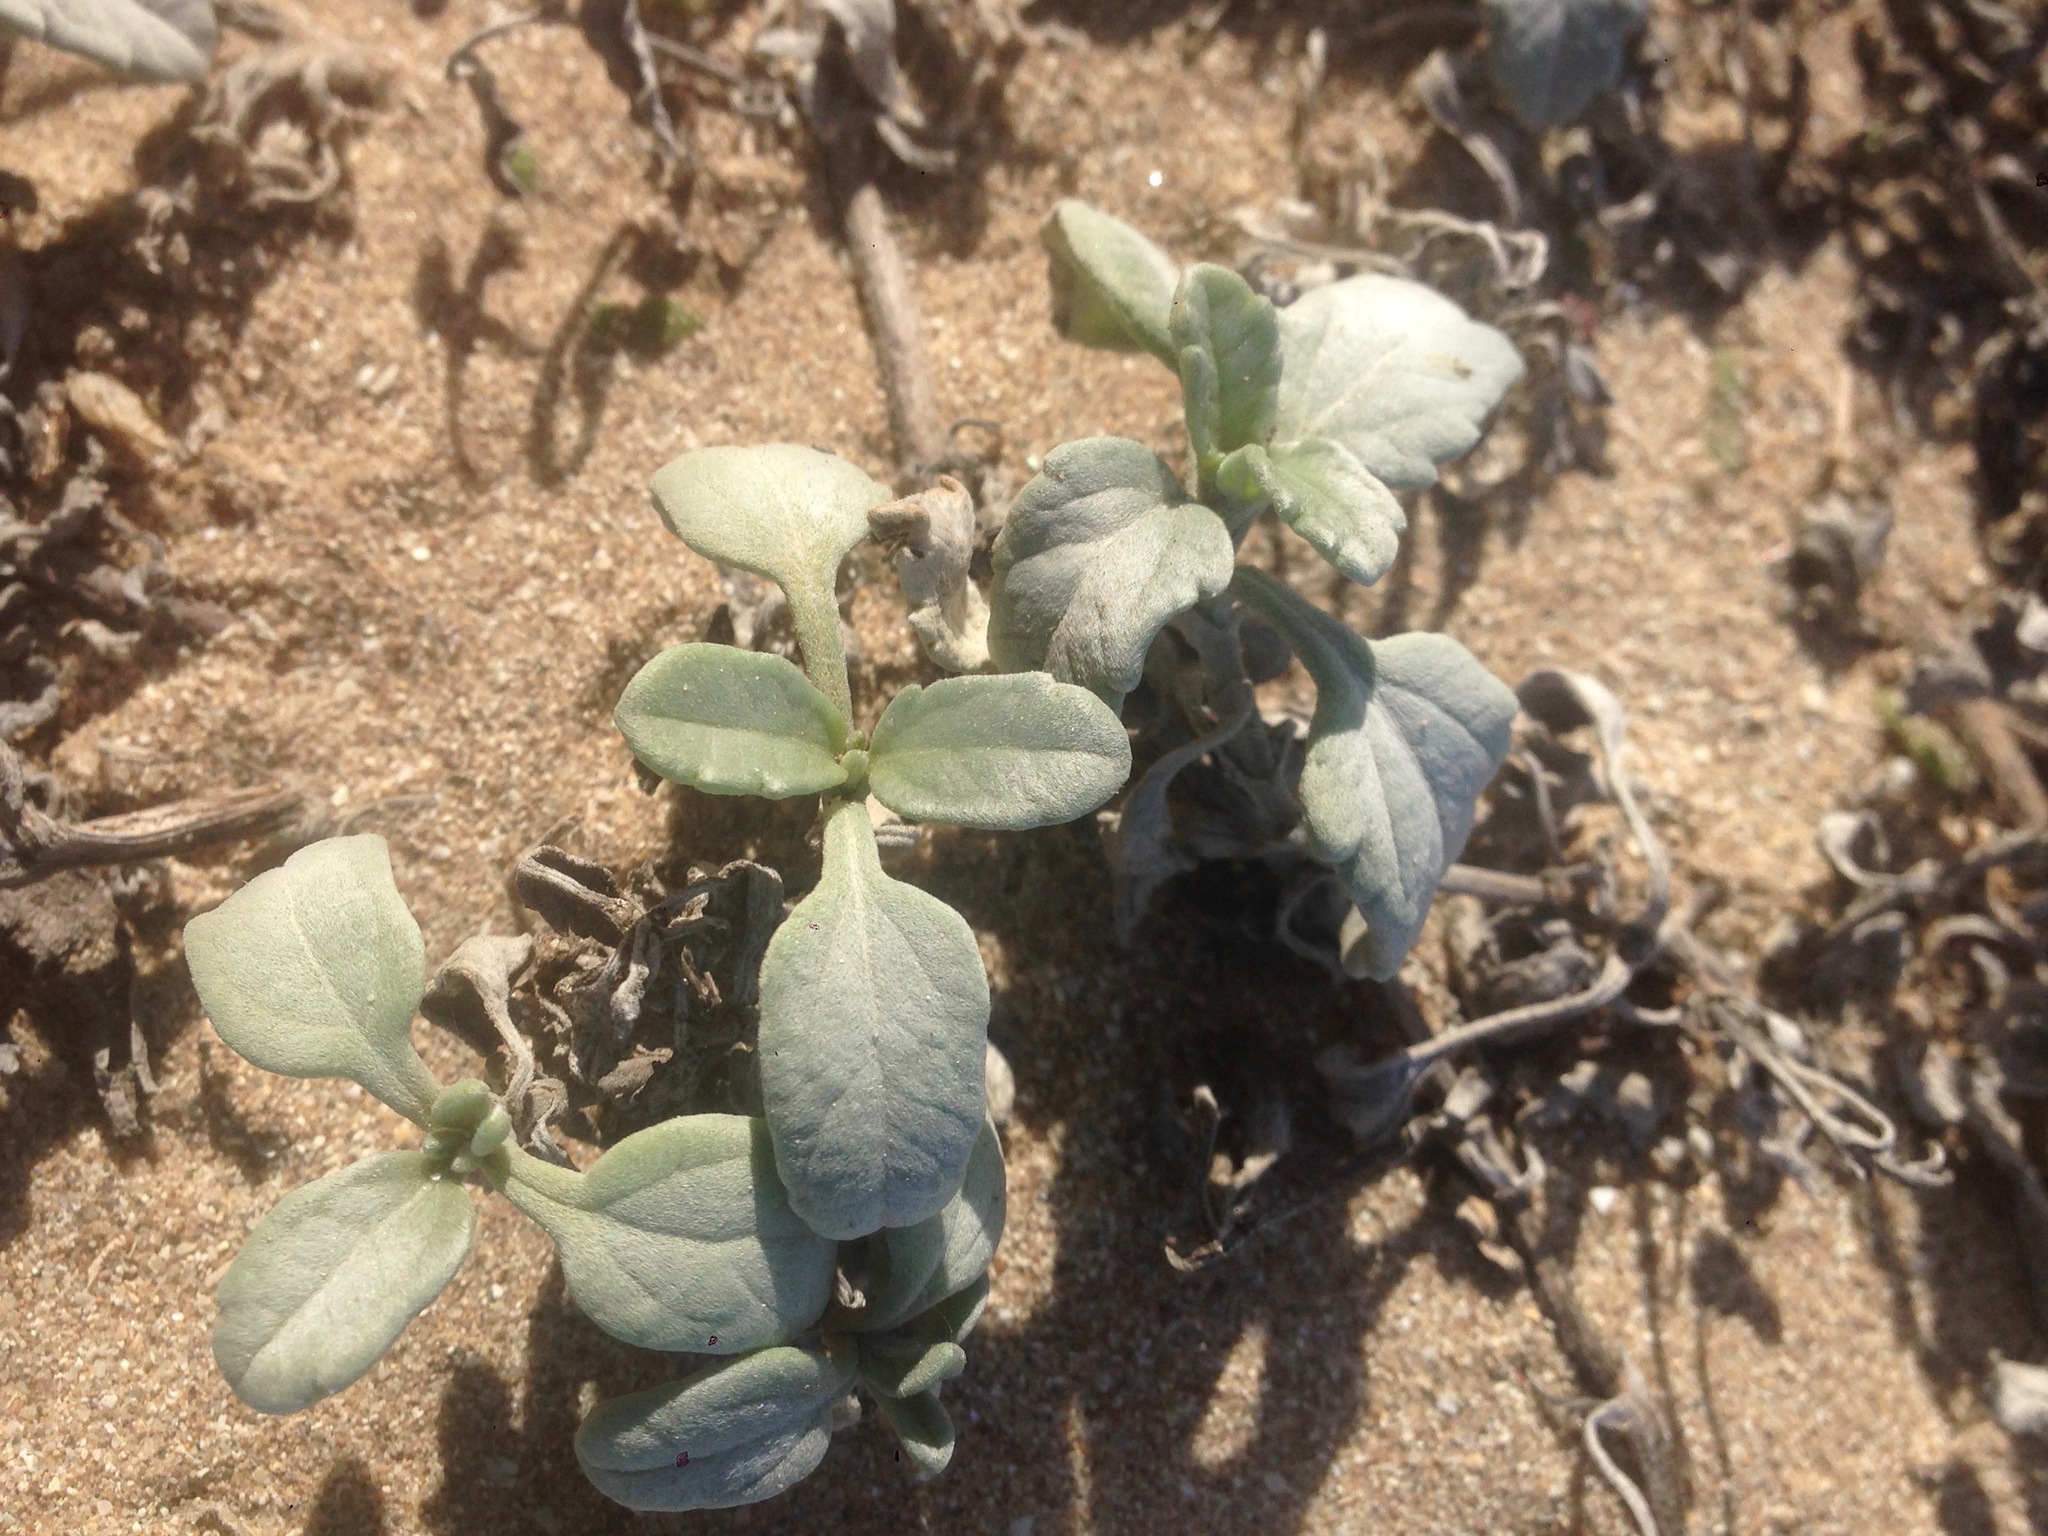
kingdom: Plantae
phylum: Tracheophyta
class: Magnoliopsida
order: Asterales
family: Asteraceae
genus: Ambrosia
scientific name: Ambrosia chamissonis
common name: Beachbur
